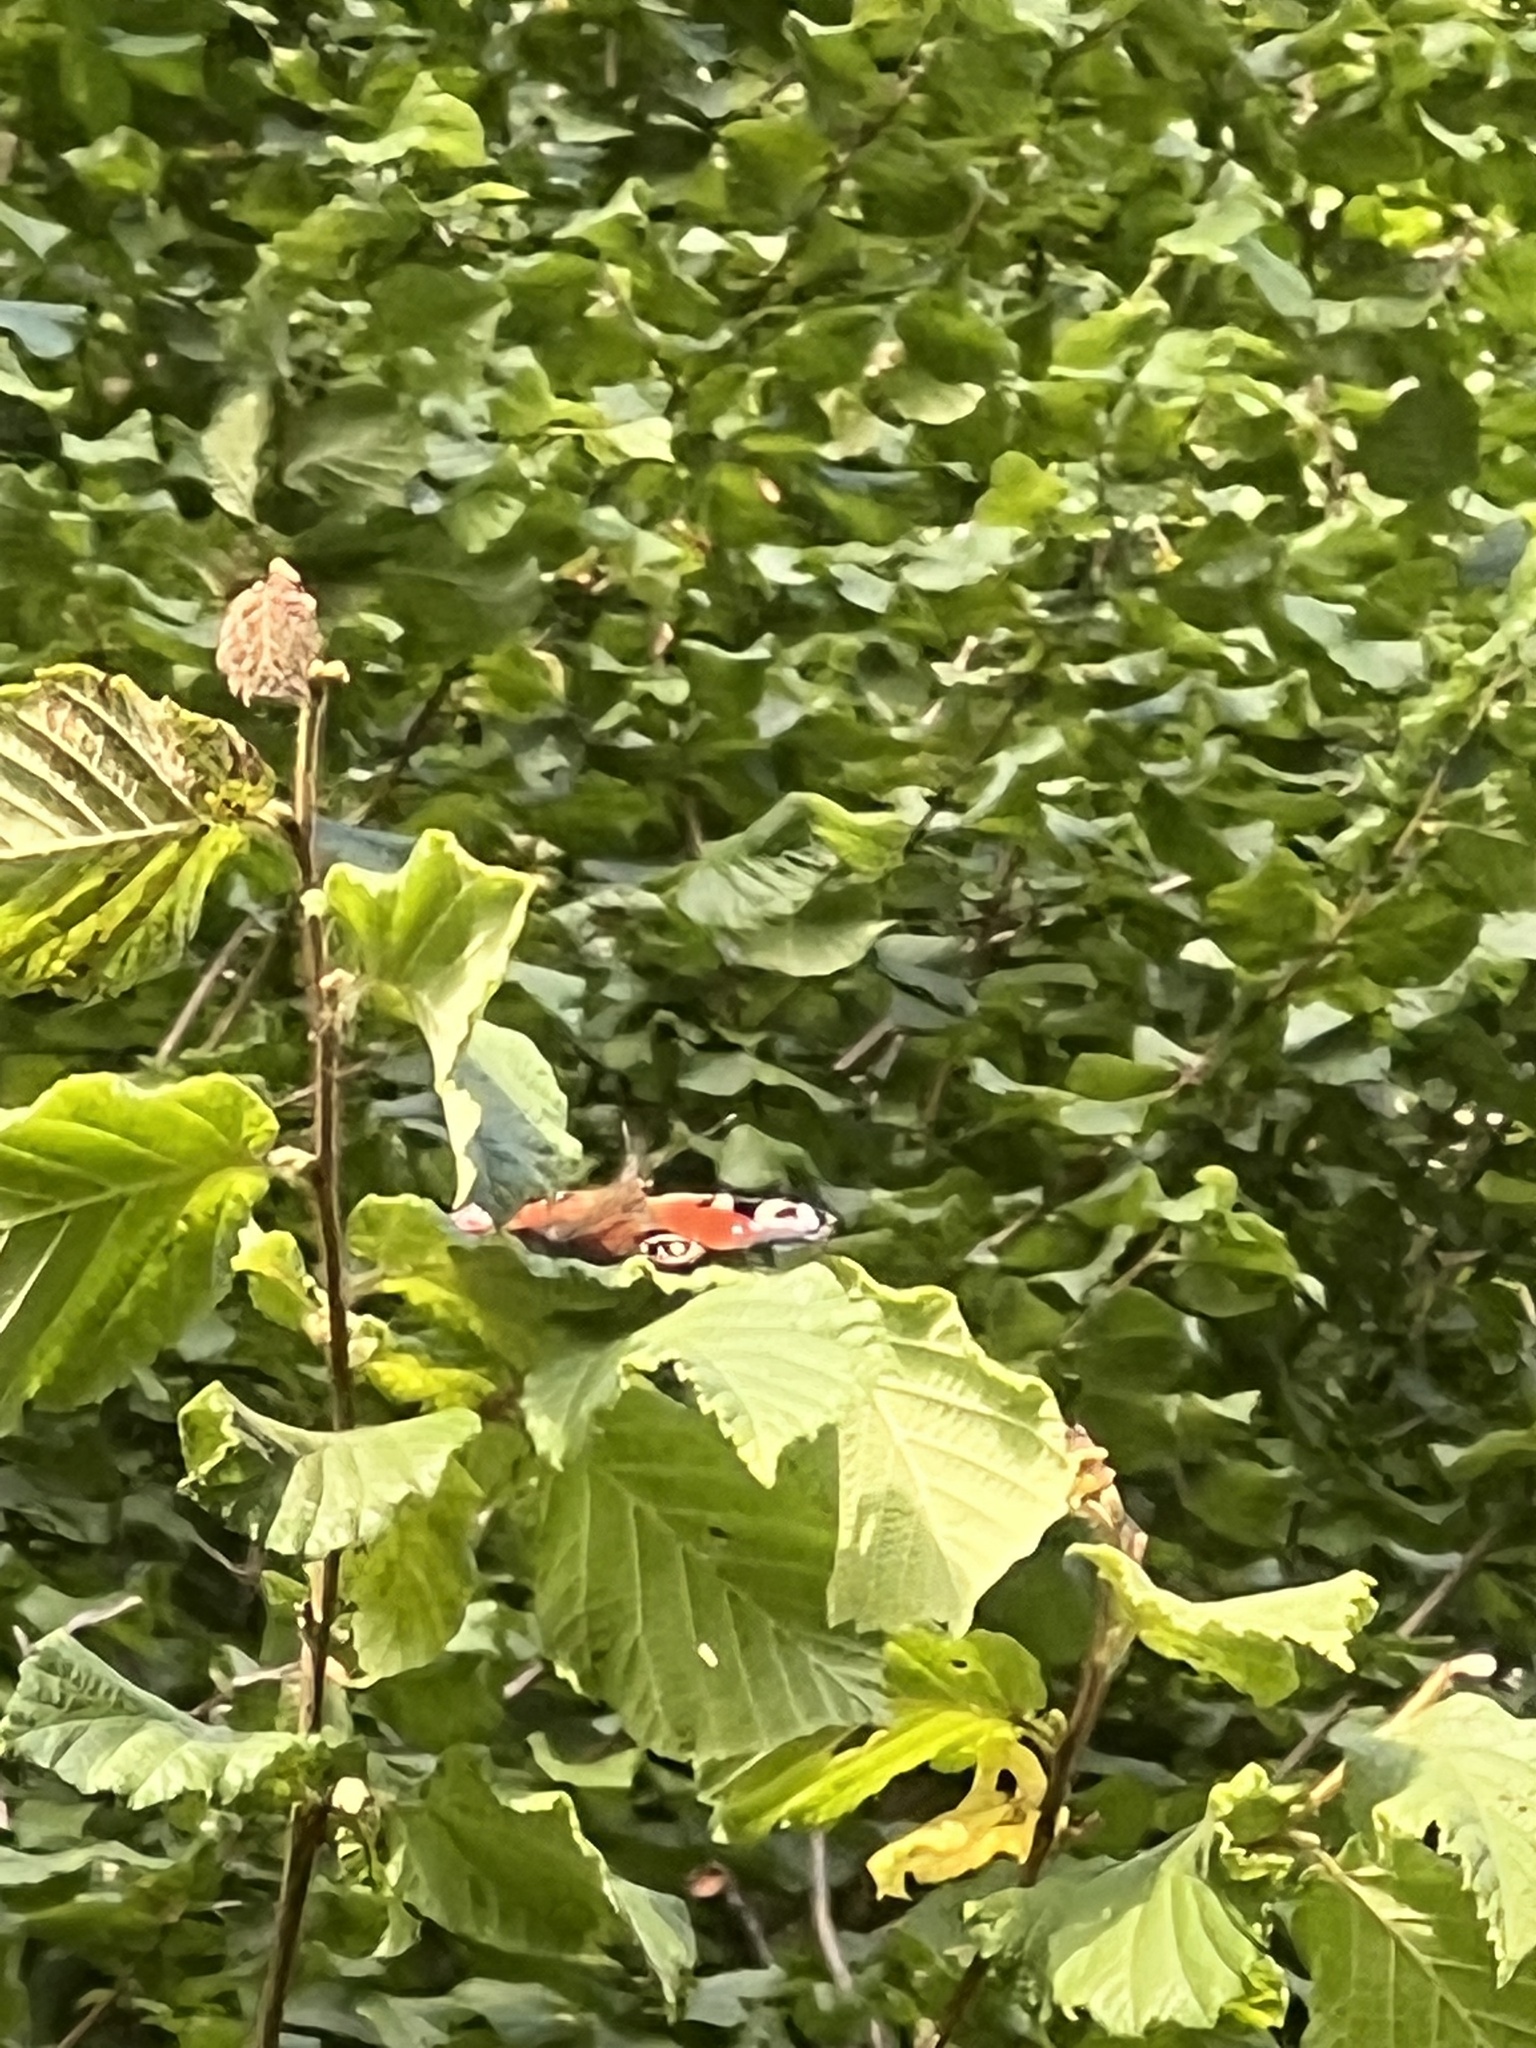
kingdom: Animalia
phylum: Arthropoda
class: Insecta
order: Lepidoptera
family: Nymphalidae
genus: Aglais
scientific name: Aglais io
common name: Peacock
